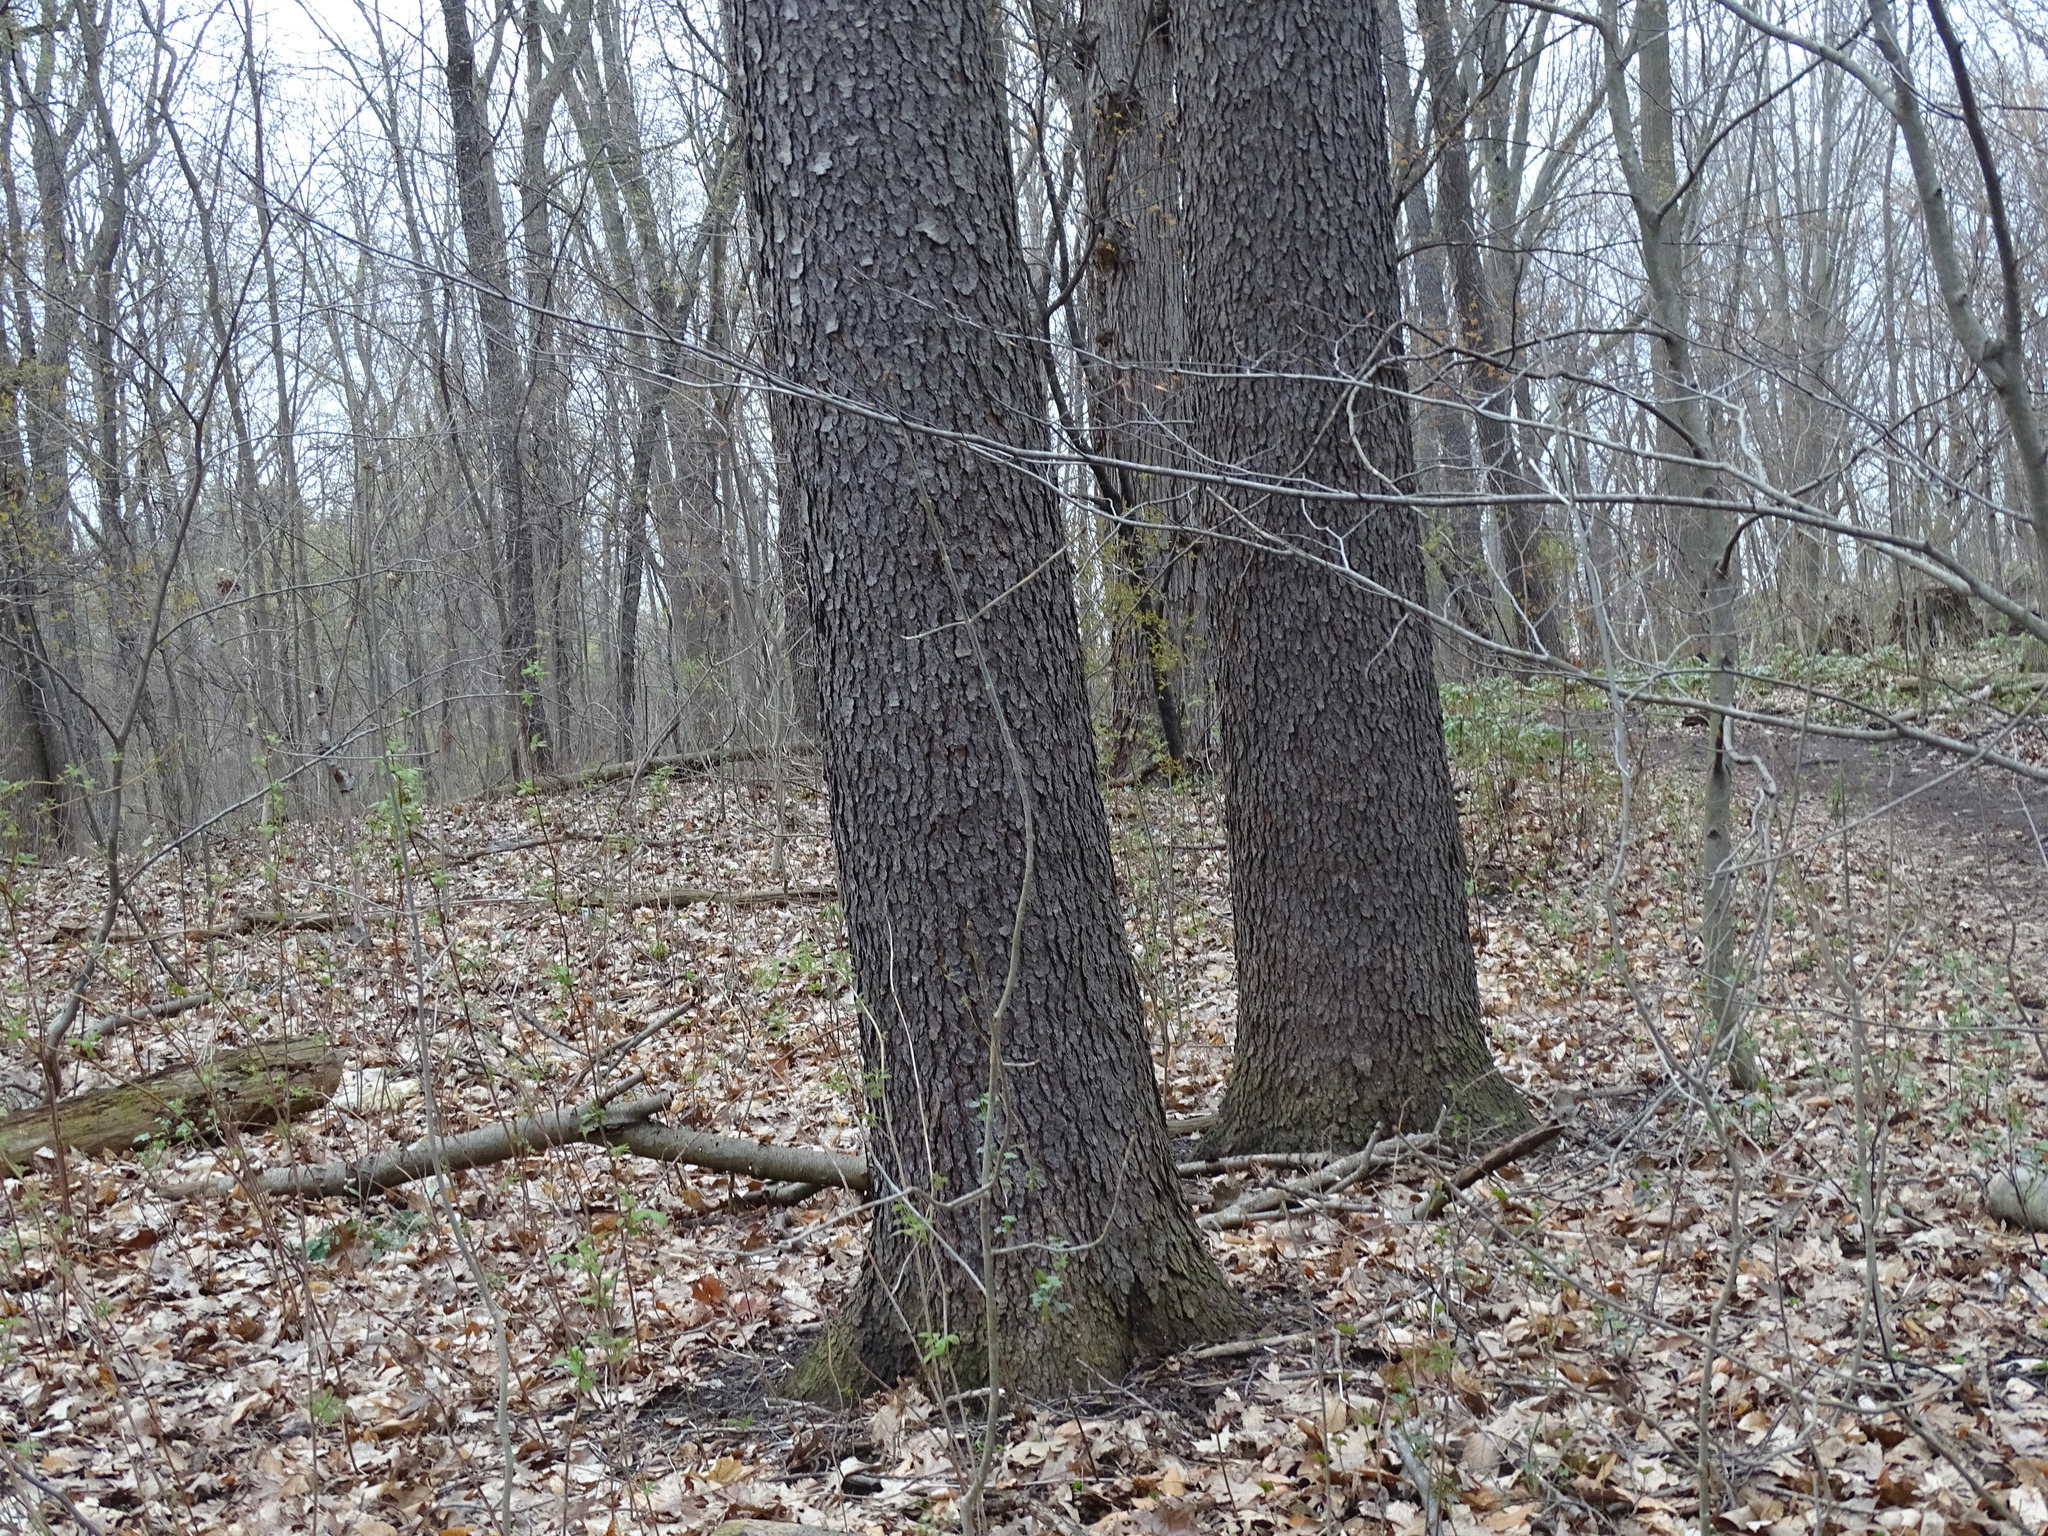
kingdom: Plantae
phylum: Tracheophyta
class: Magnoliopsida
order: Rosales
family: Rosaceae
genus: Prunus
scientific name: Prunus serotina
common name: Black cherry
